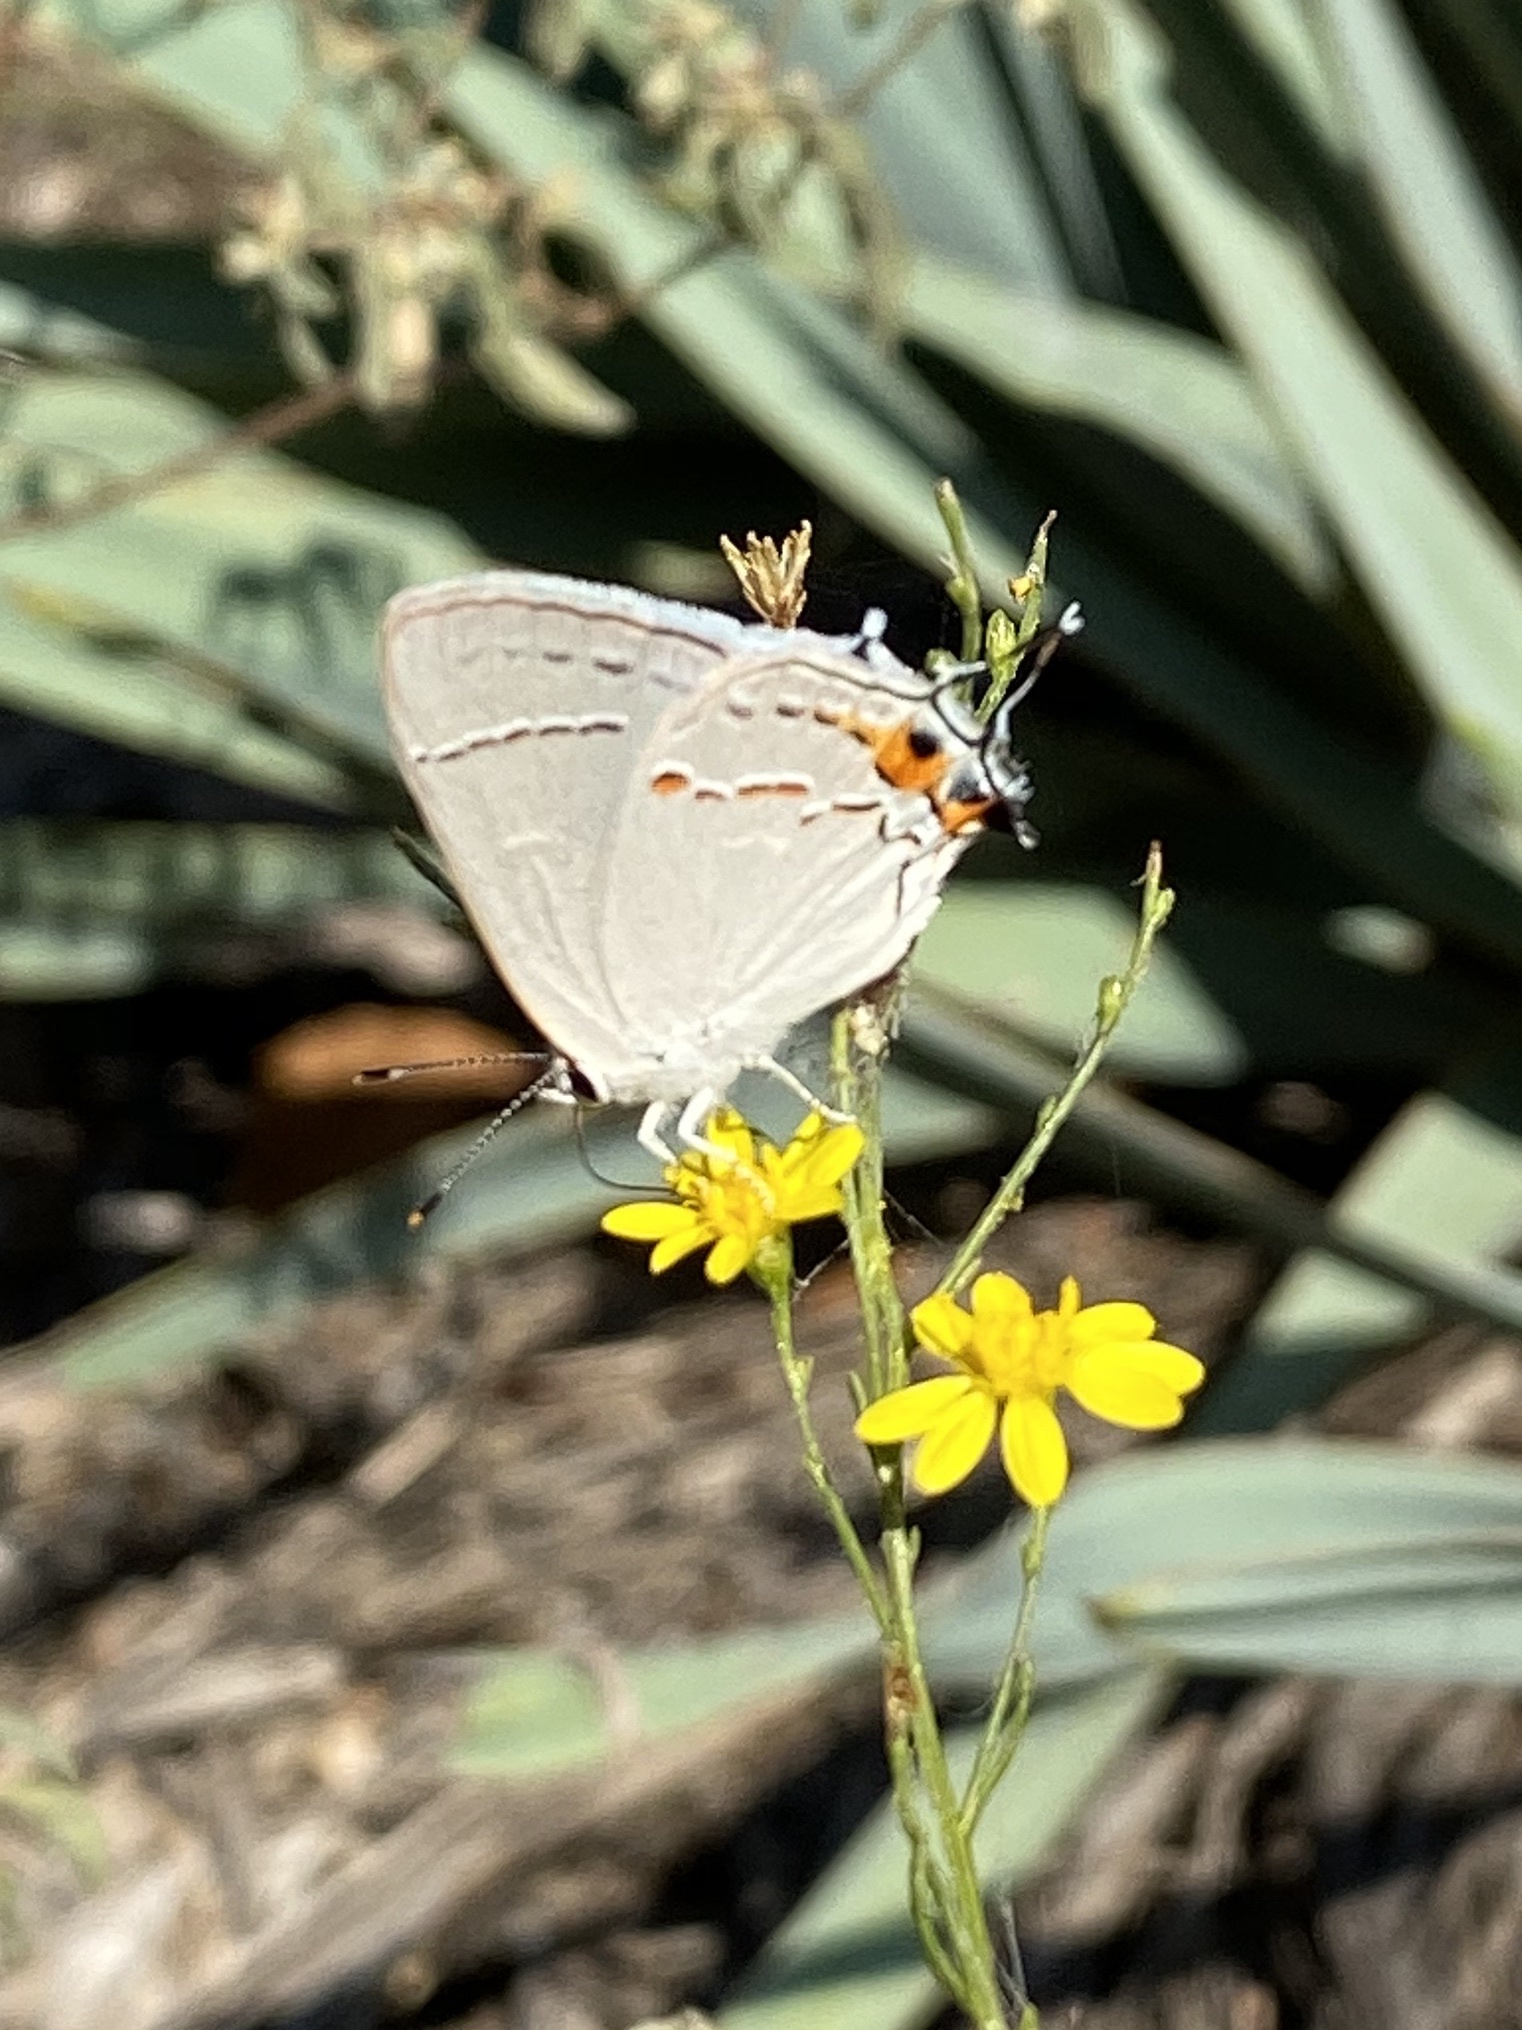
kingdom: Animalia
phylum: Arthropoda
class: Insecta
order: Lepidoptera
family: Lycaenidae
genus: Strymon
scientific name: Strymon melinus
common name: Gray hairstreak
